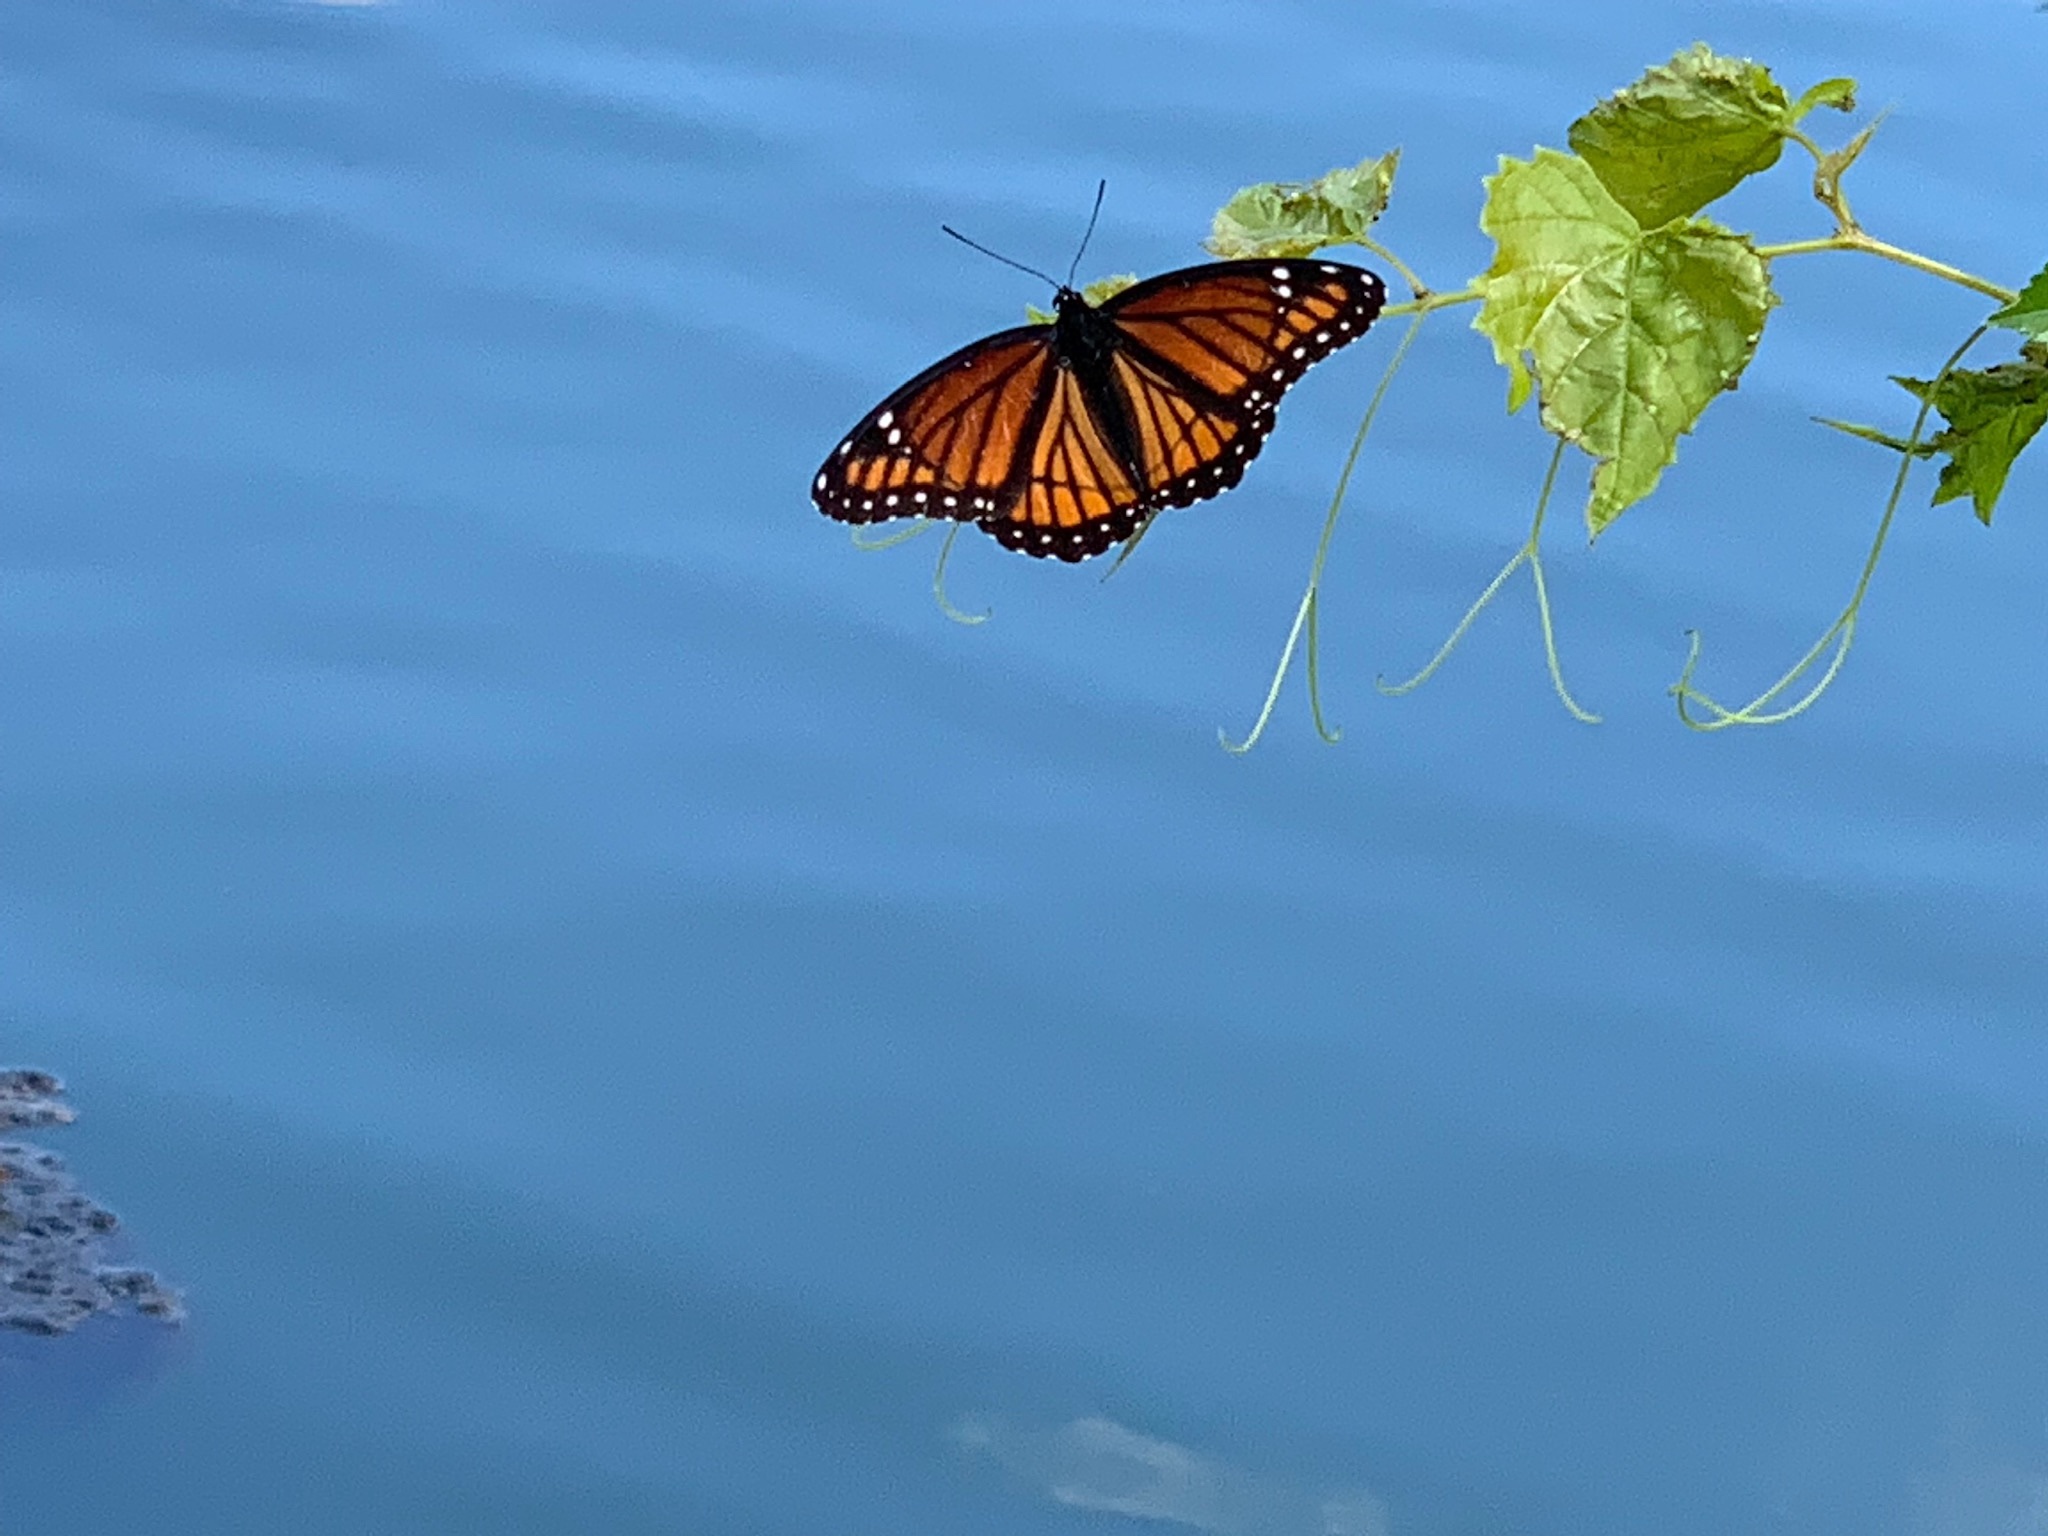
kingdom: Animalia
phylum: Arthropoda
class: Insecta
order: Lepidoptera
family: Nymphalidae
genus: Limenitis
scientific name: Limenitis archippus
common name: Viceroy
